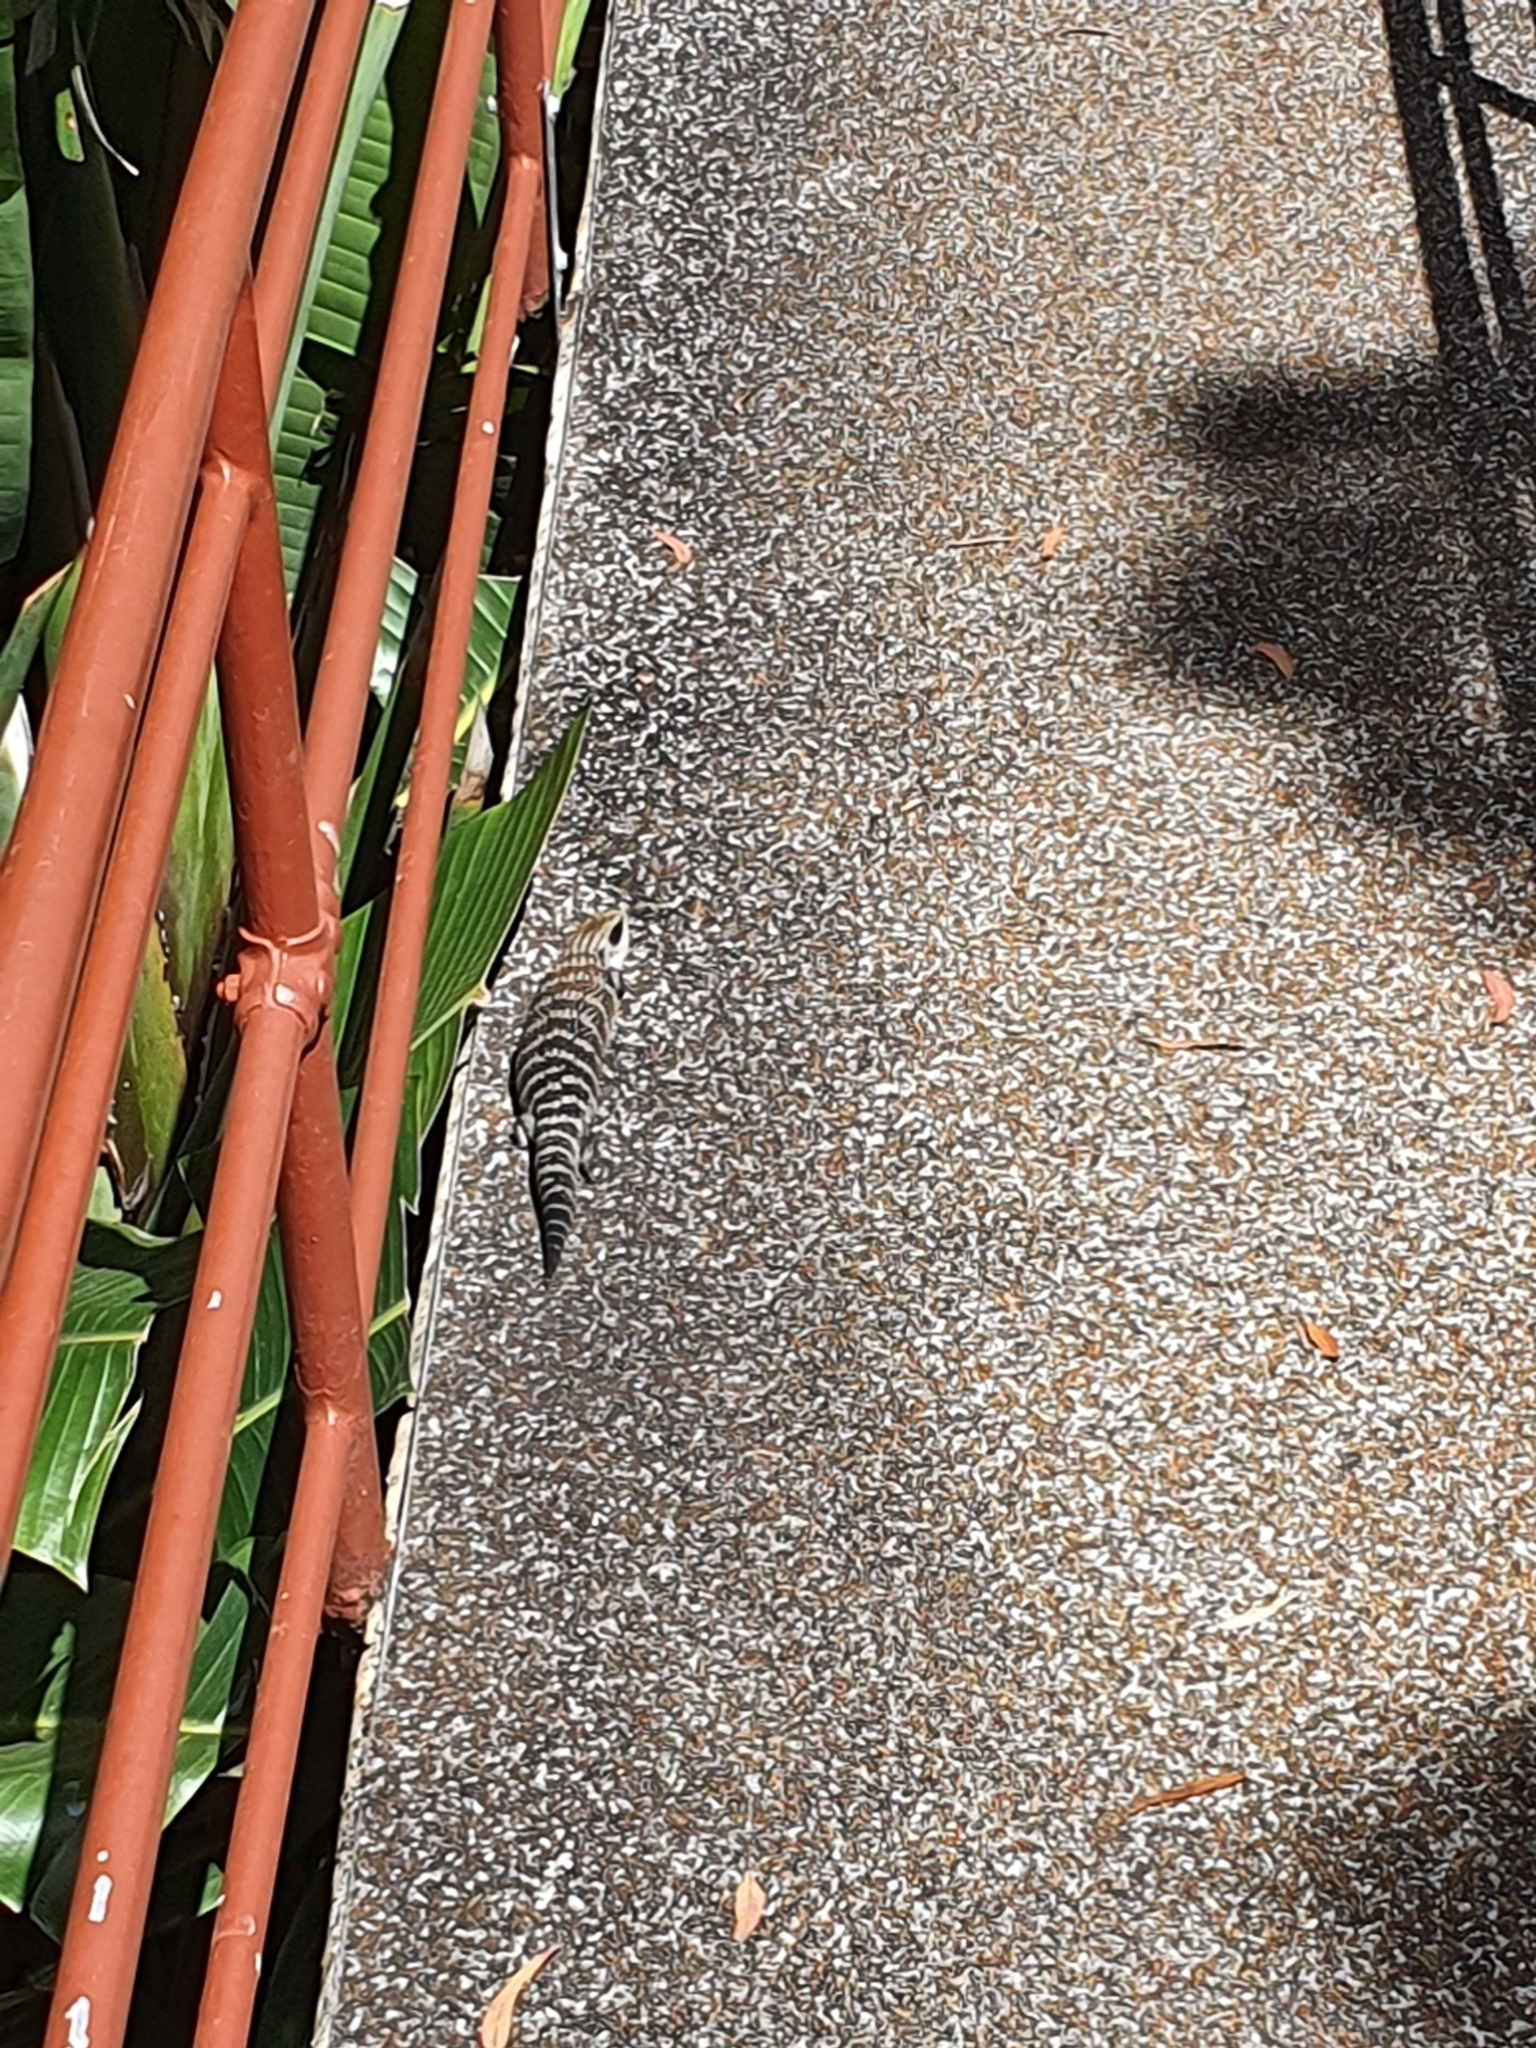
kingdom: Animalia
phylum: Chordata
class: Squamata
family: Scincidae
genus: Tiliqua
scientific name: Tiliqua scincoides
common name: Common bluetongue
